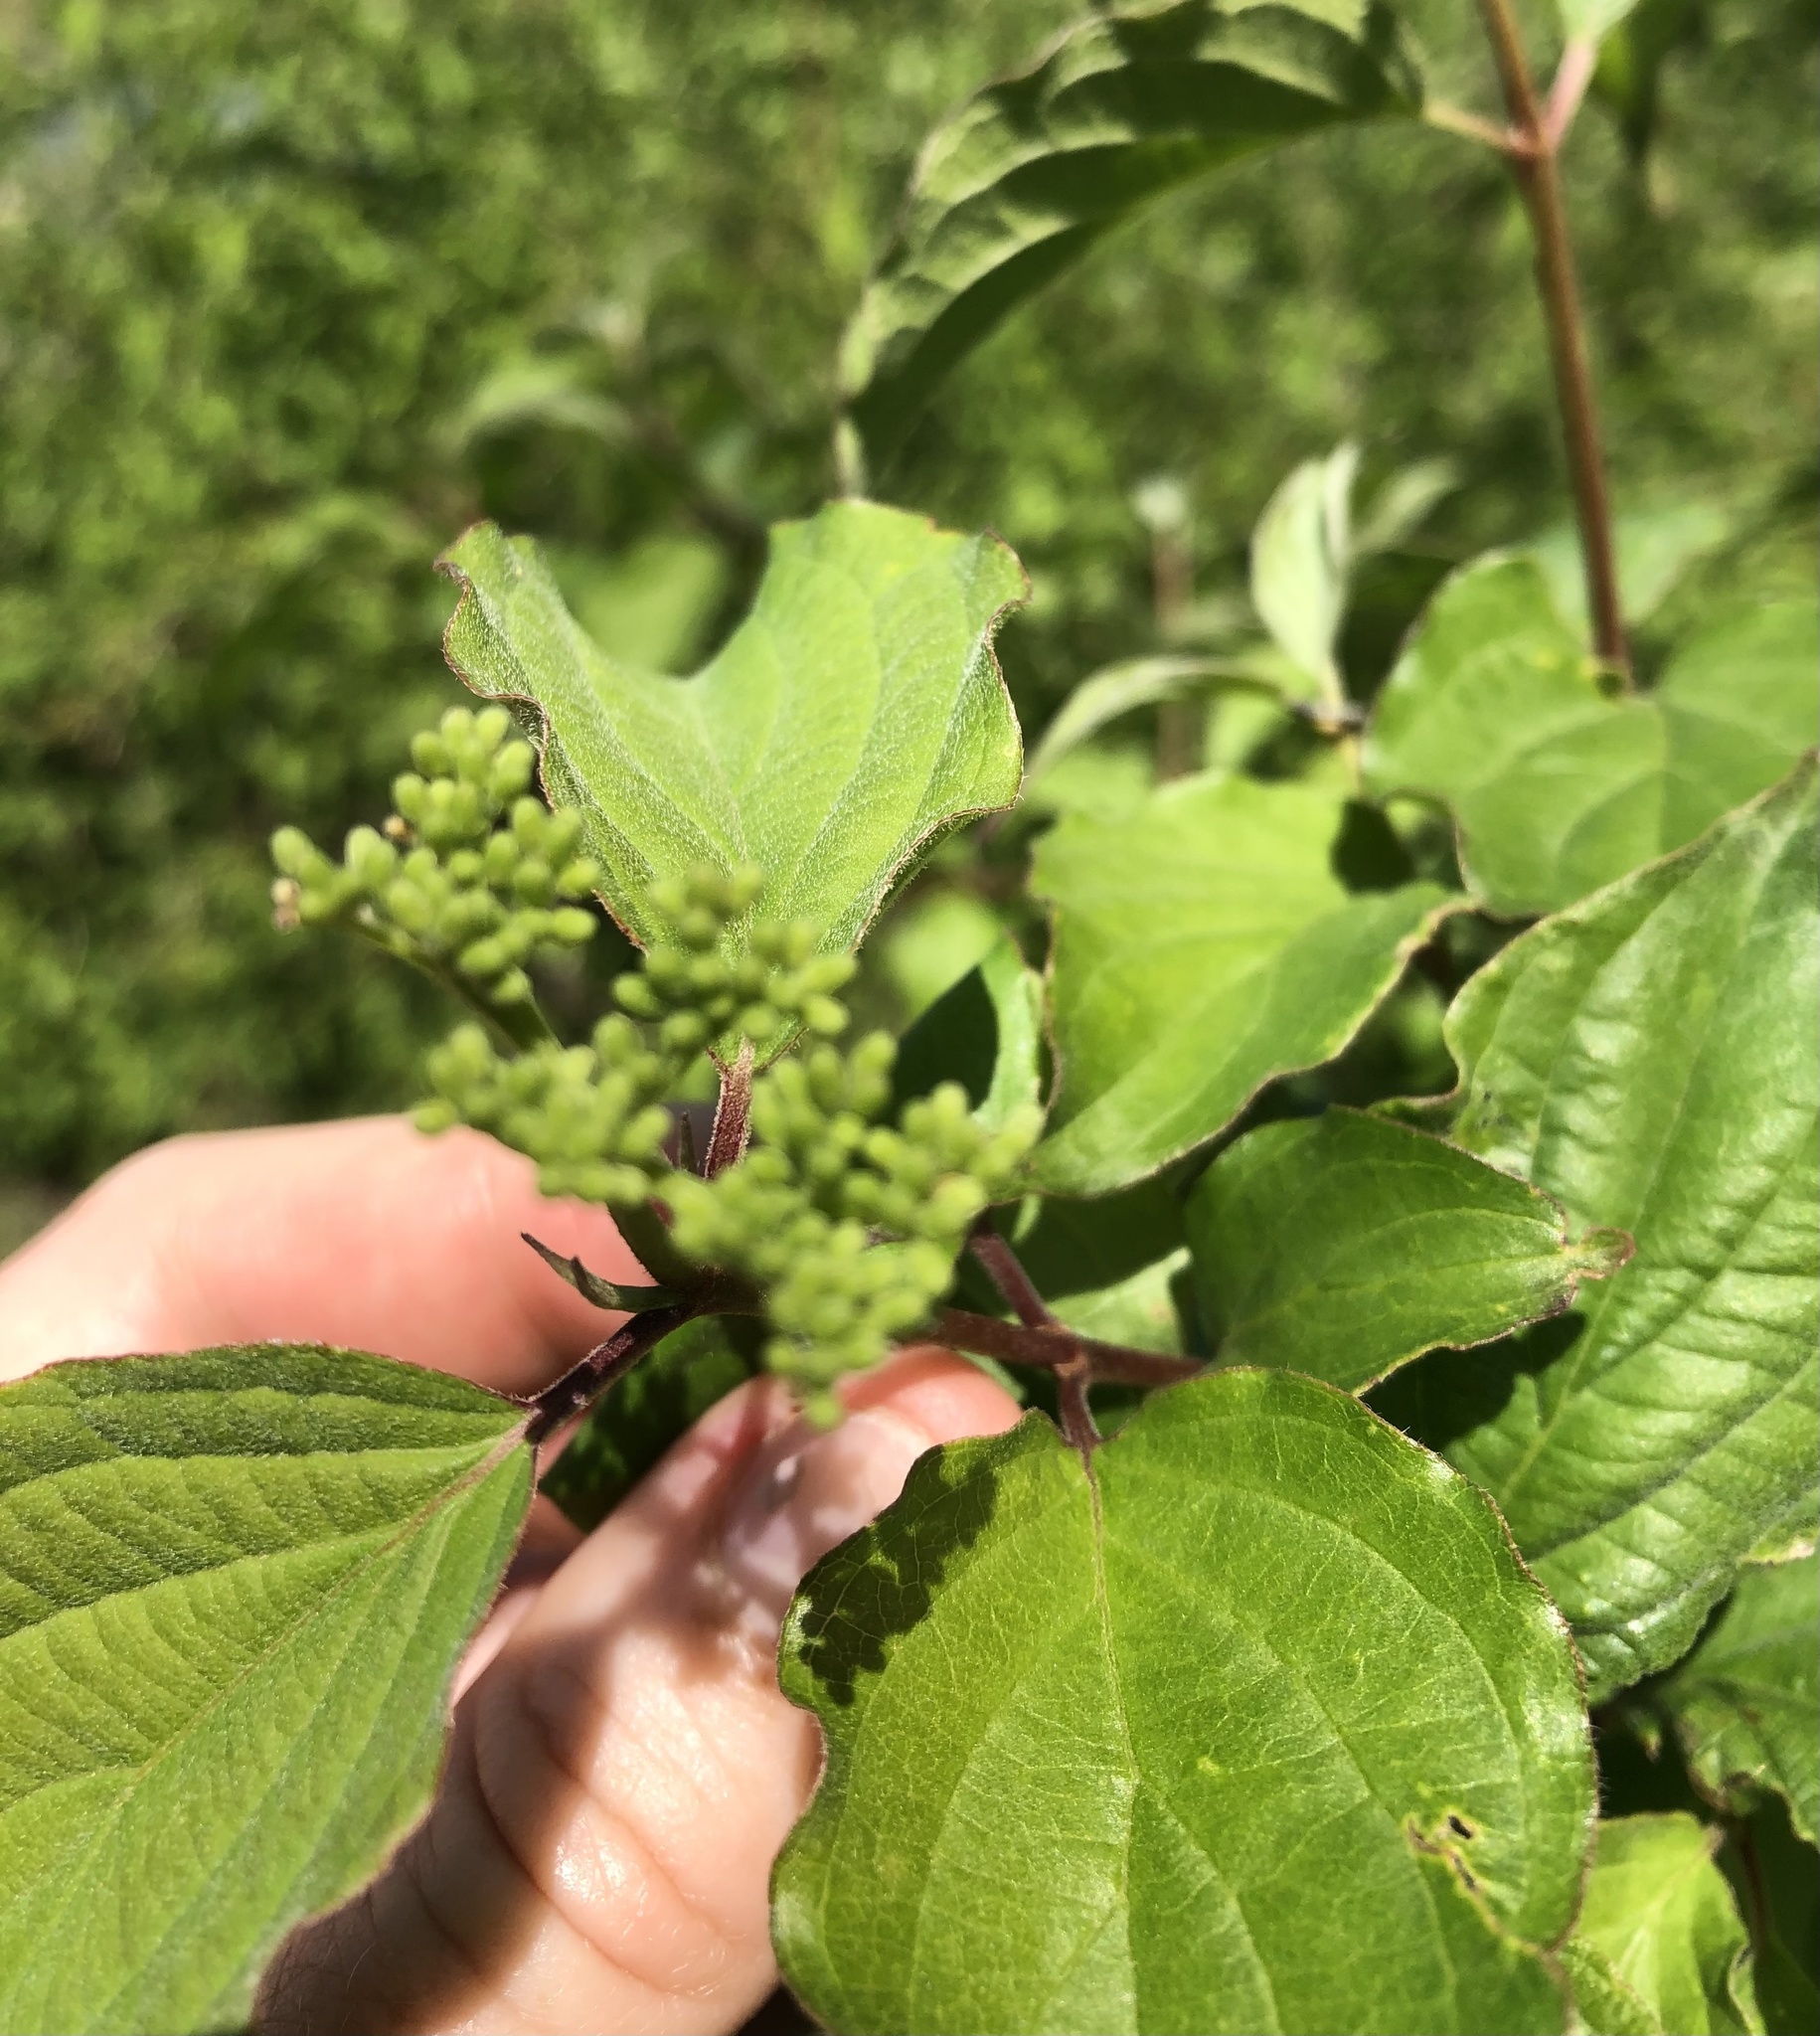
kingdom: Plantae
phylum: Tracheophyta
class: Magnoliopsida
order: Cornales
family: Cornaceae
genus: Cornus
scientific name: Cornus drummondii
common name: Rough-leaf dogwood
